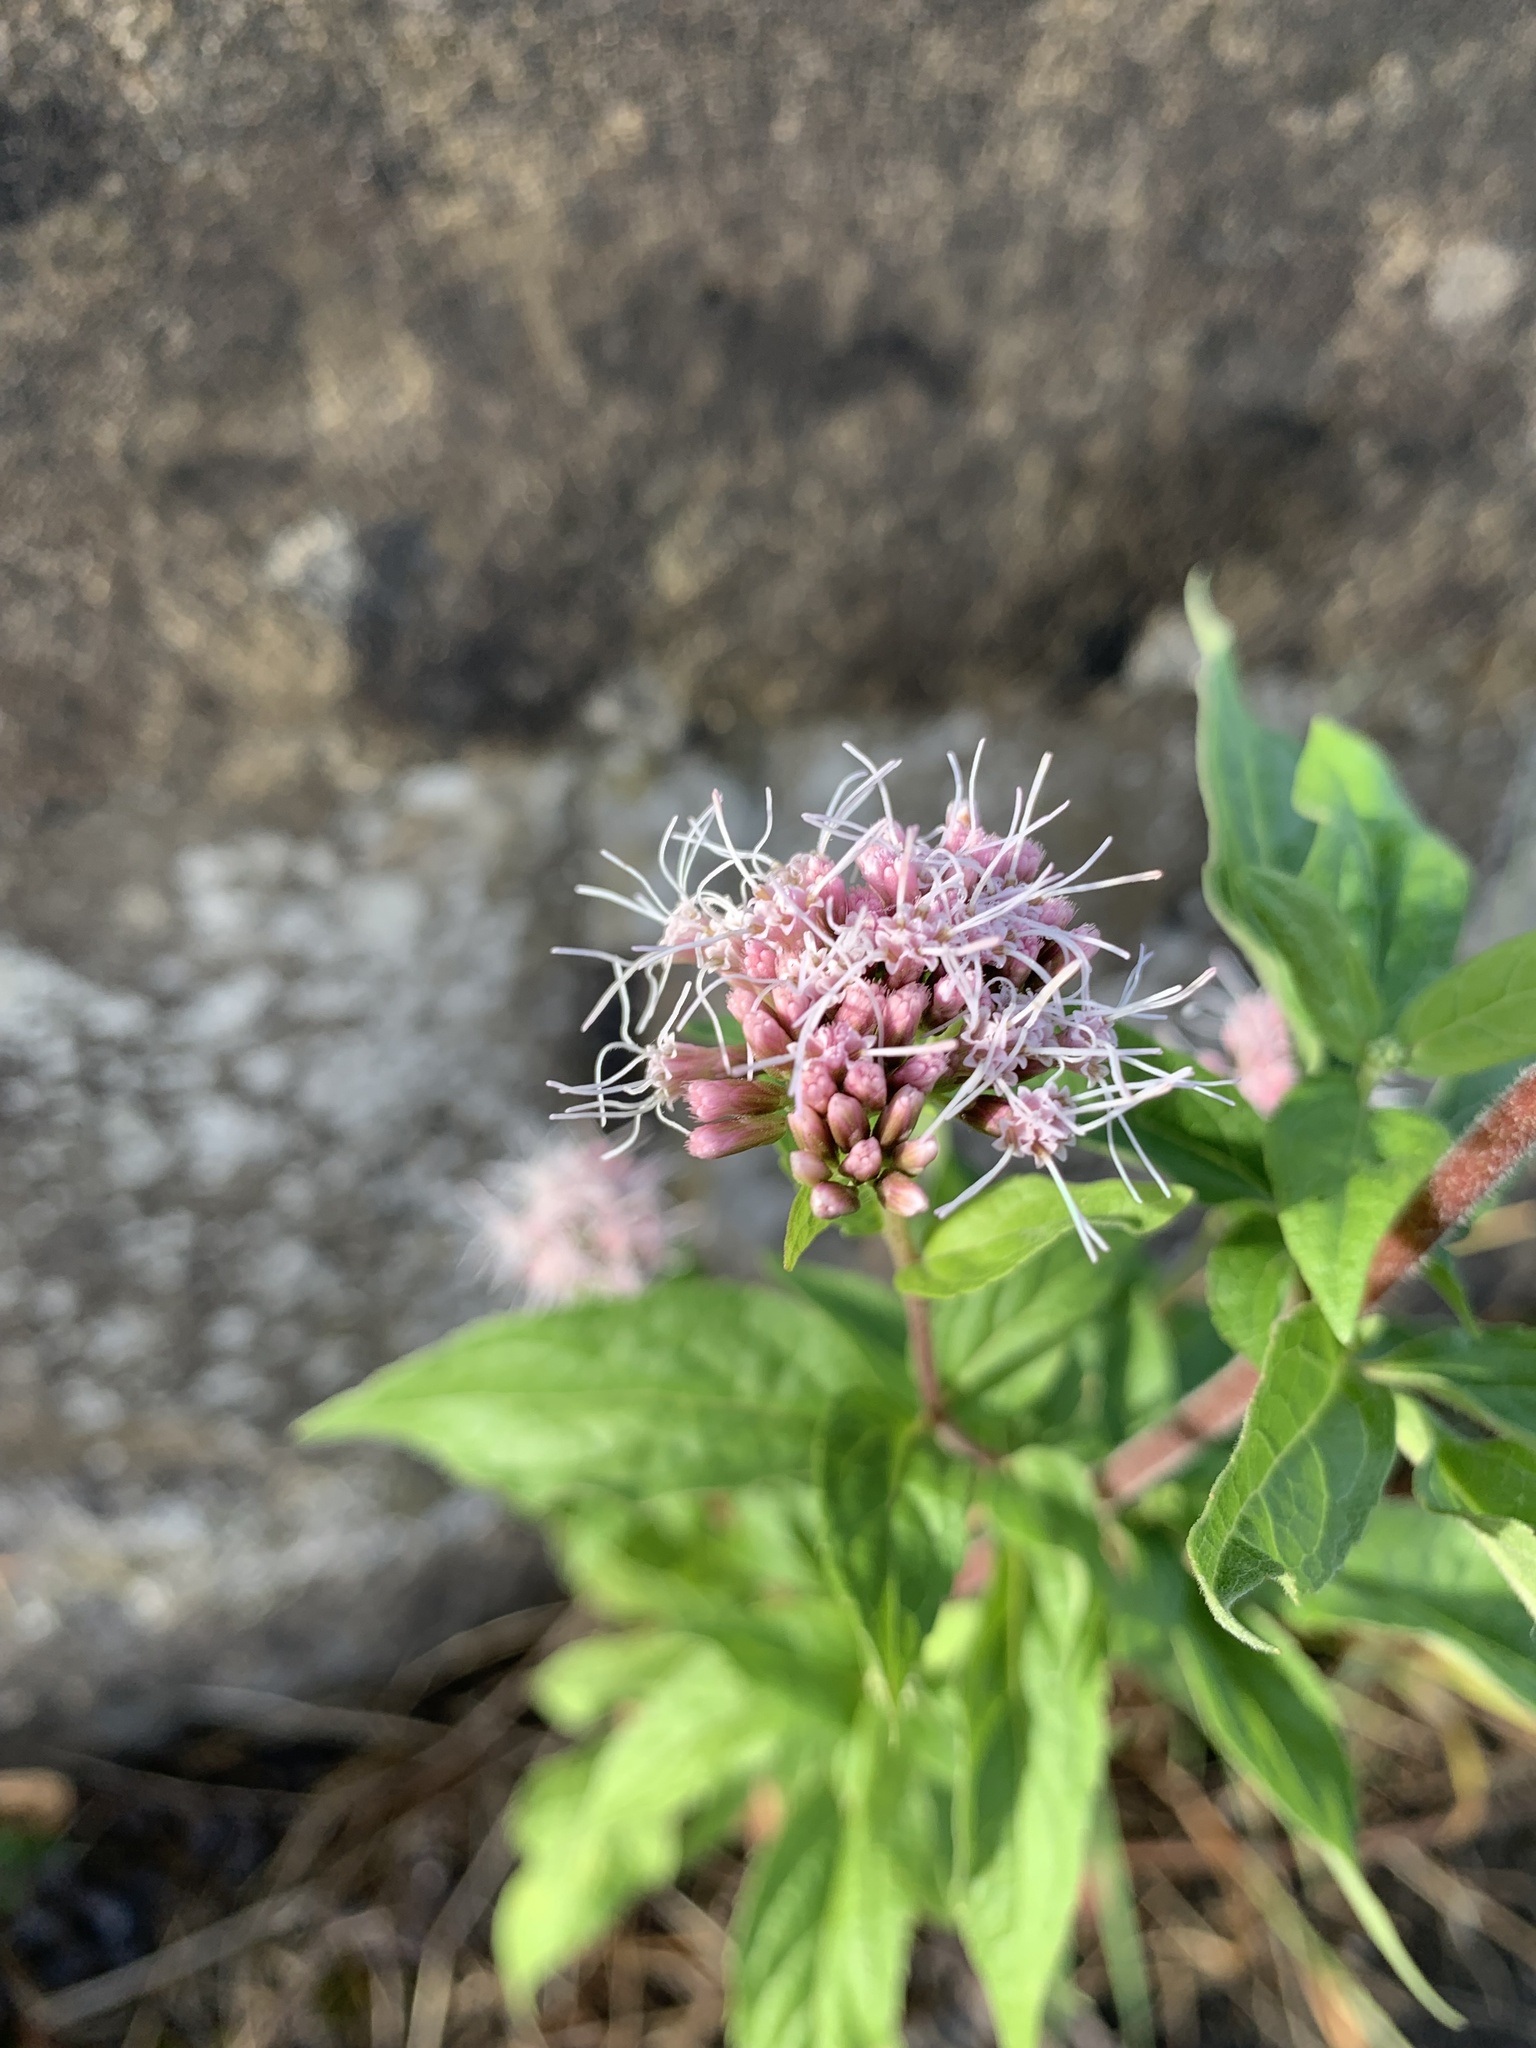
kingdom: Plantae
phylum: Tracheophyta
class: Magnoliopsida
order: Asterales
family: Asteraceae
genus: Eupatorium
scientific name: Eupatorium cannabinum
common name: Hemp-agrimony
